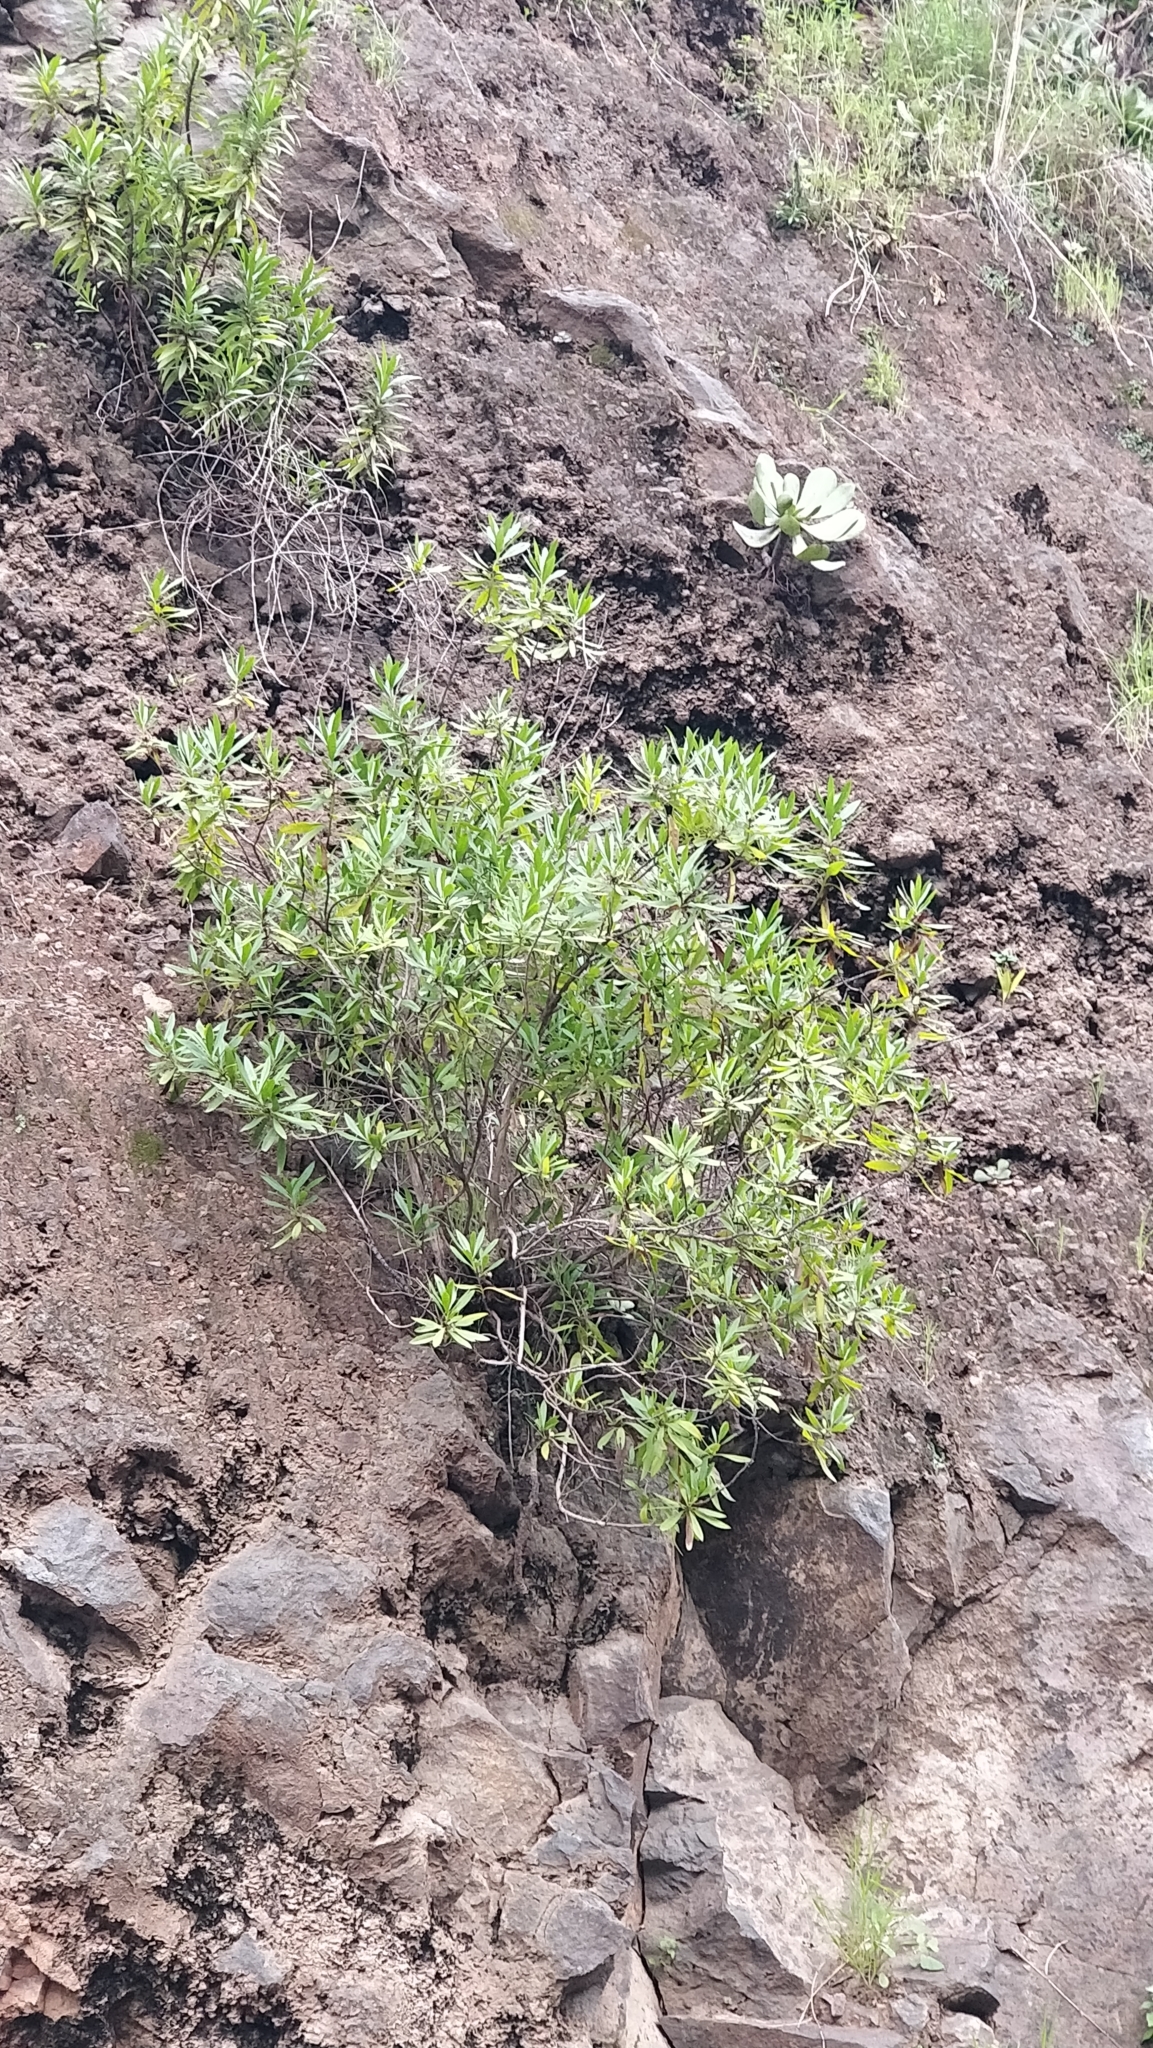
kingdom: Plantae
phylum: Tracheophyta
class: Magnoliopsida
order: Lamiales
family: Plantaginaceae
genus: Globularia
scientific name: Globularia salicina
